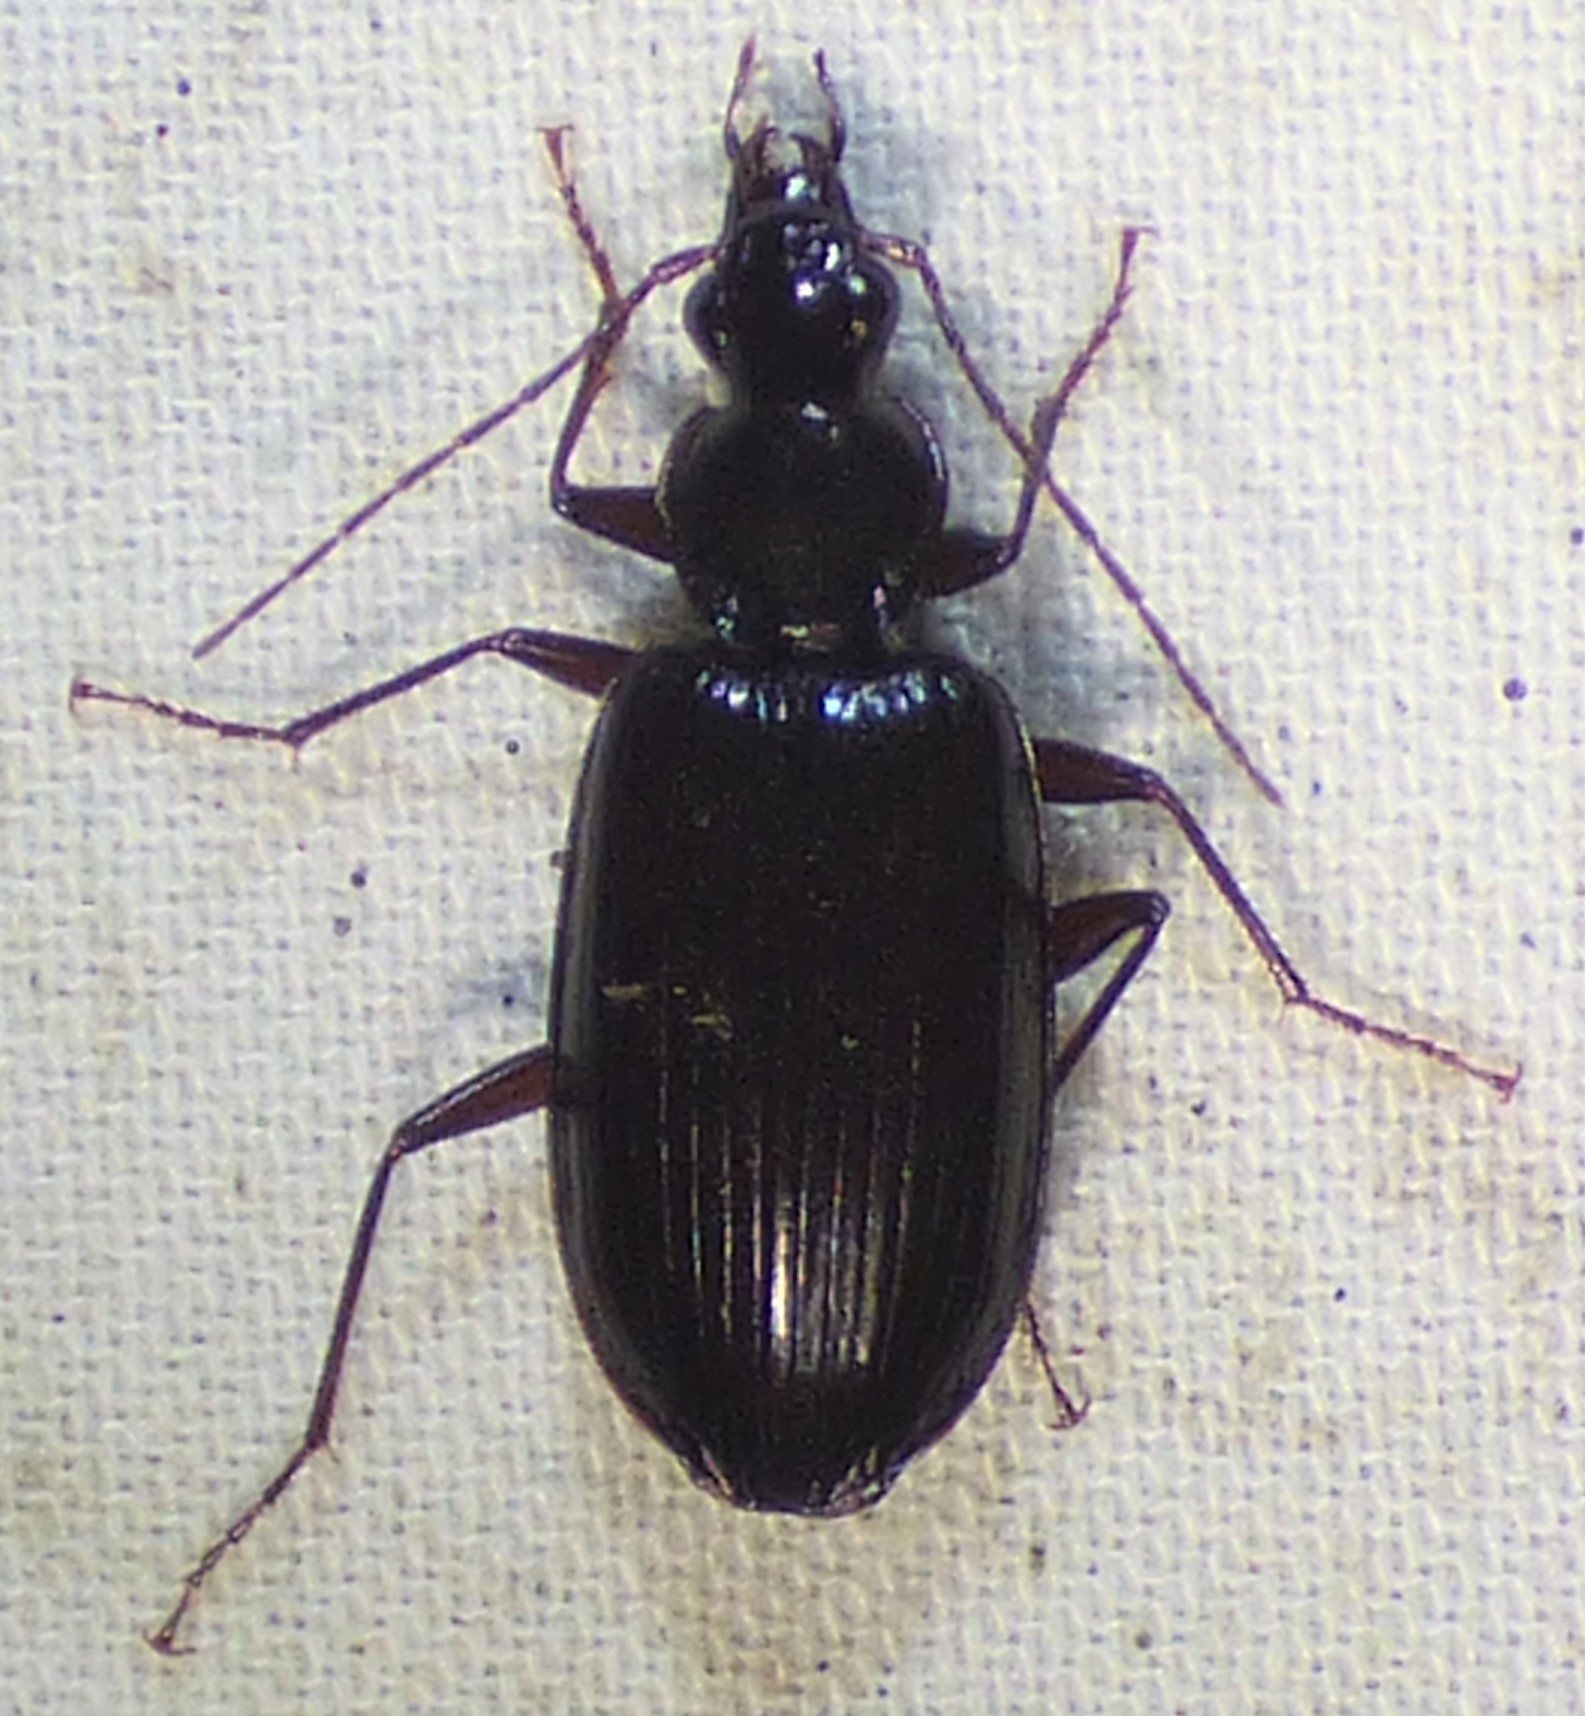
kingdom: Animalia
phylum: Arthropoda
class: Insecta
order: Coleoptera
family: Carabidae
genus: Platynus
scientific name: Platynus cincticollis
